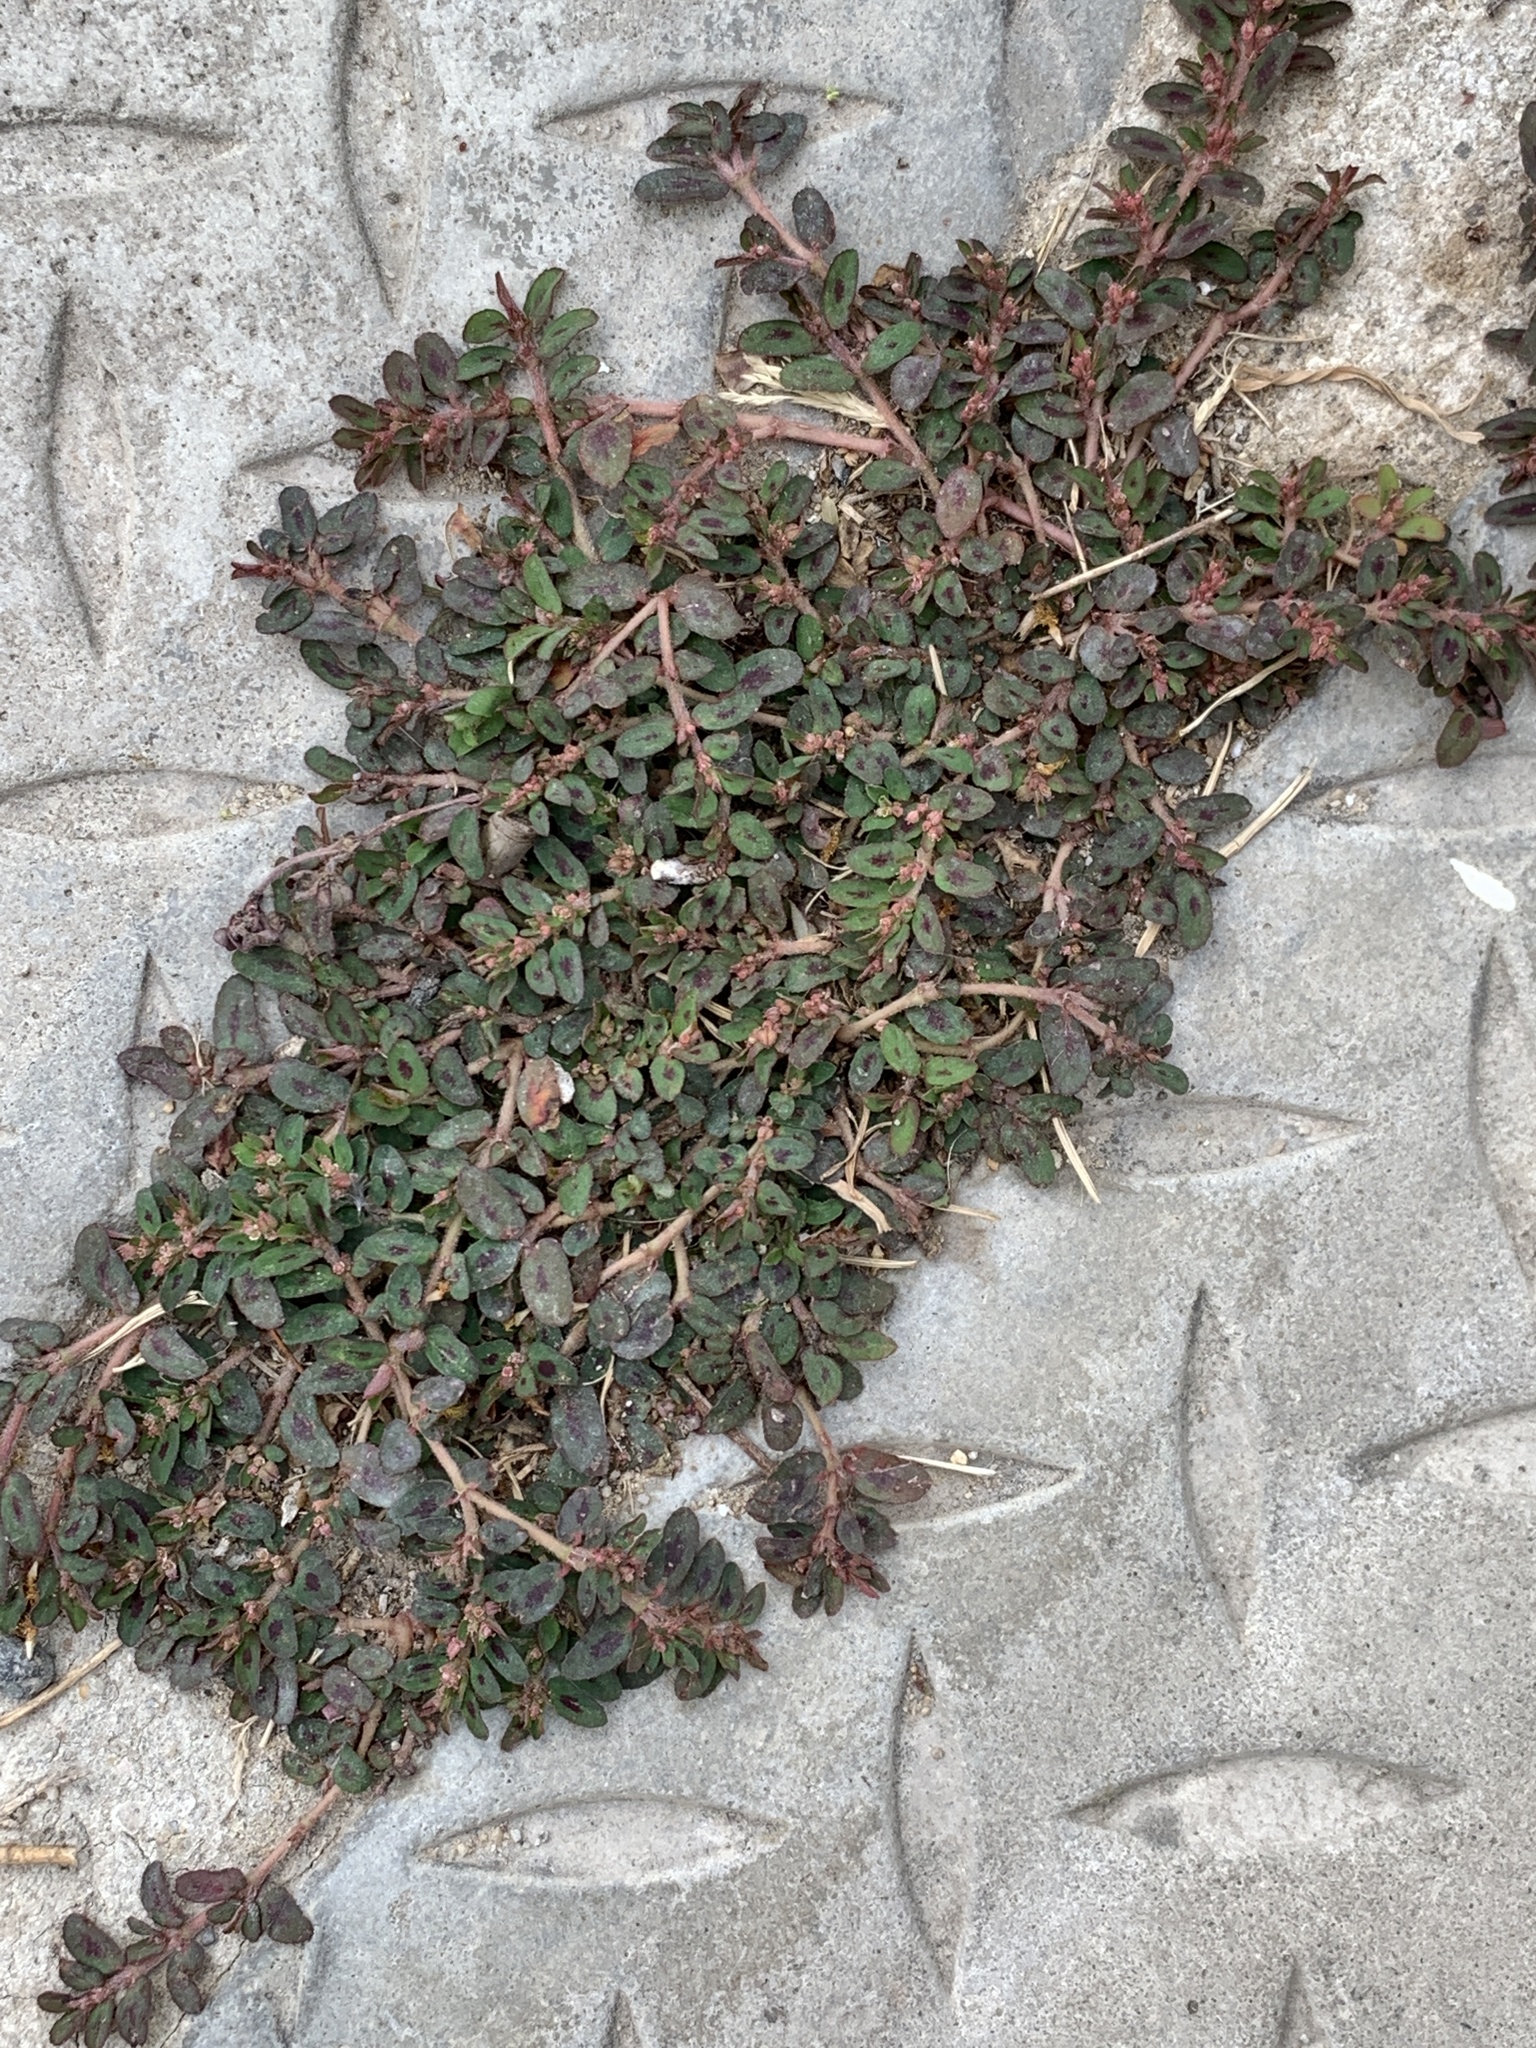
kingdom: Plantae
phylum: Tracheophyta
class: Magnoliopsida
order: Malpighiales
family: Euphorbiaceae
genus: Euphorbia
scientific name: Euphorbia maculata
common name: Spotted spurge
